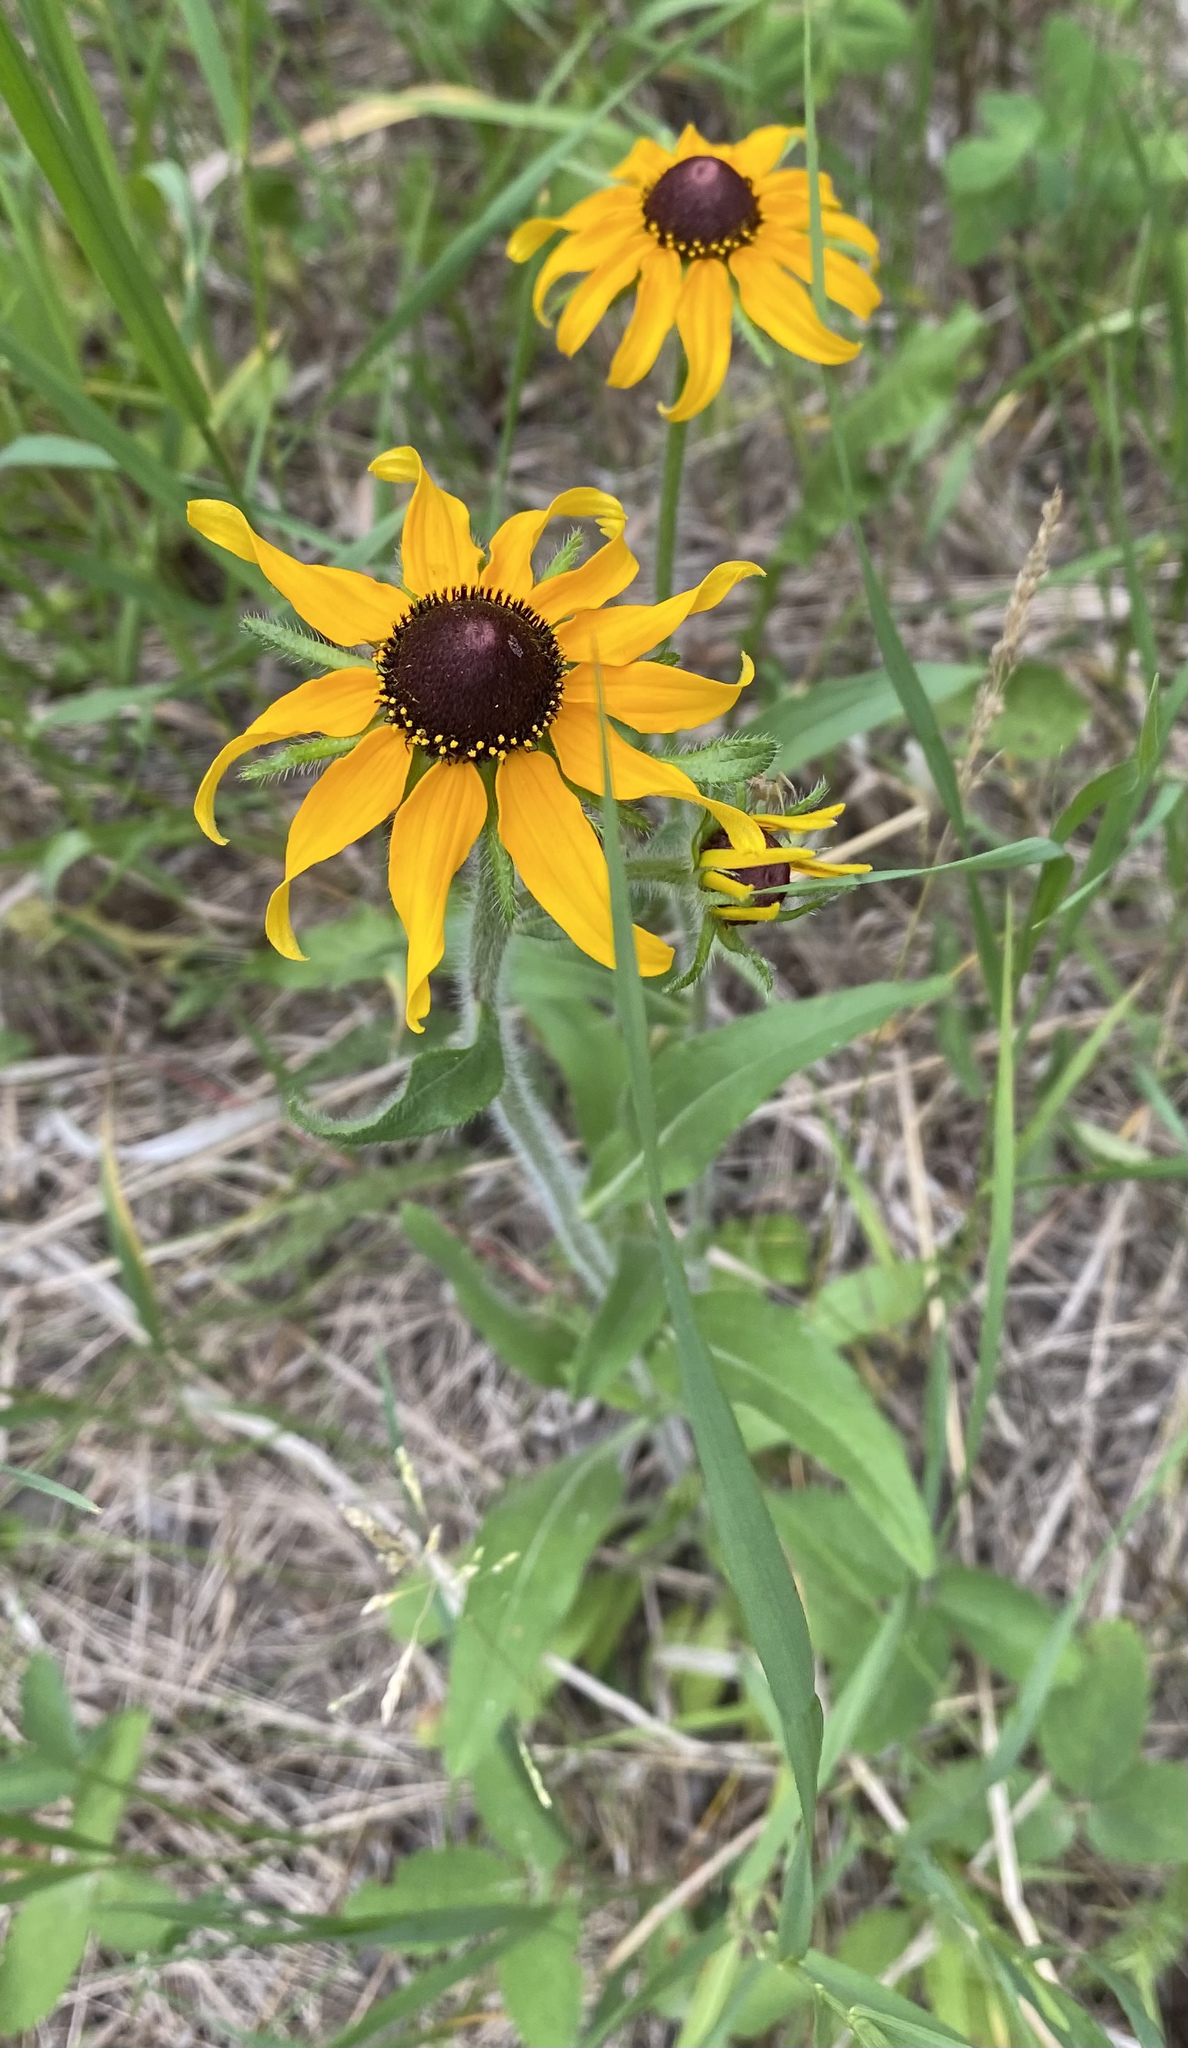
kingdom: Plantae
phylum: Tracheophyta
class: Magnoliopsida
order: Asterales
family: Asteraceae
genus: Rudbeckia
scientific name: Rudbeckia hirta
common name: Black-eyed-susan
